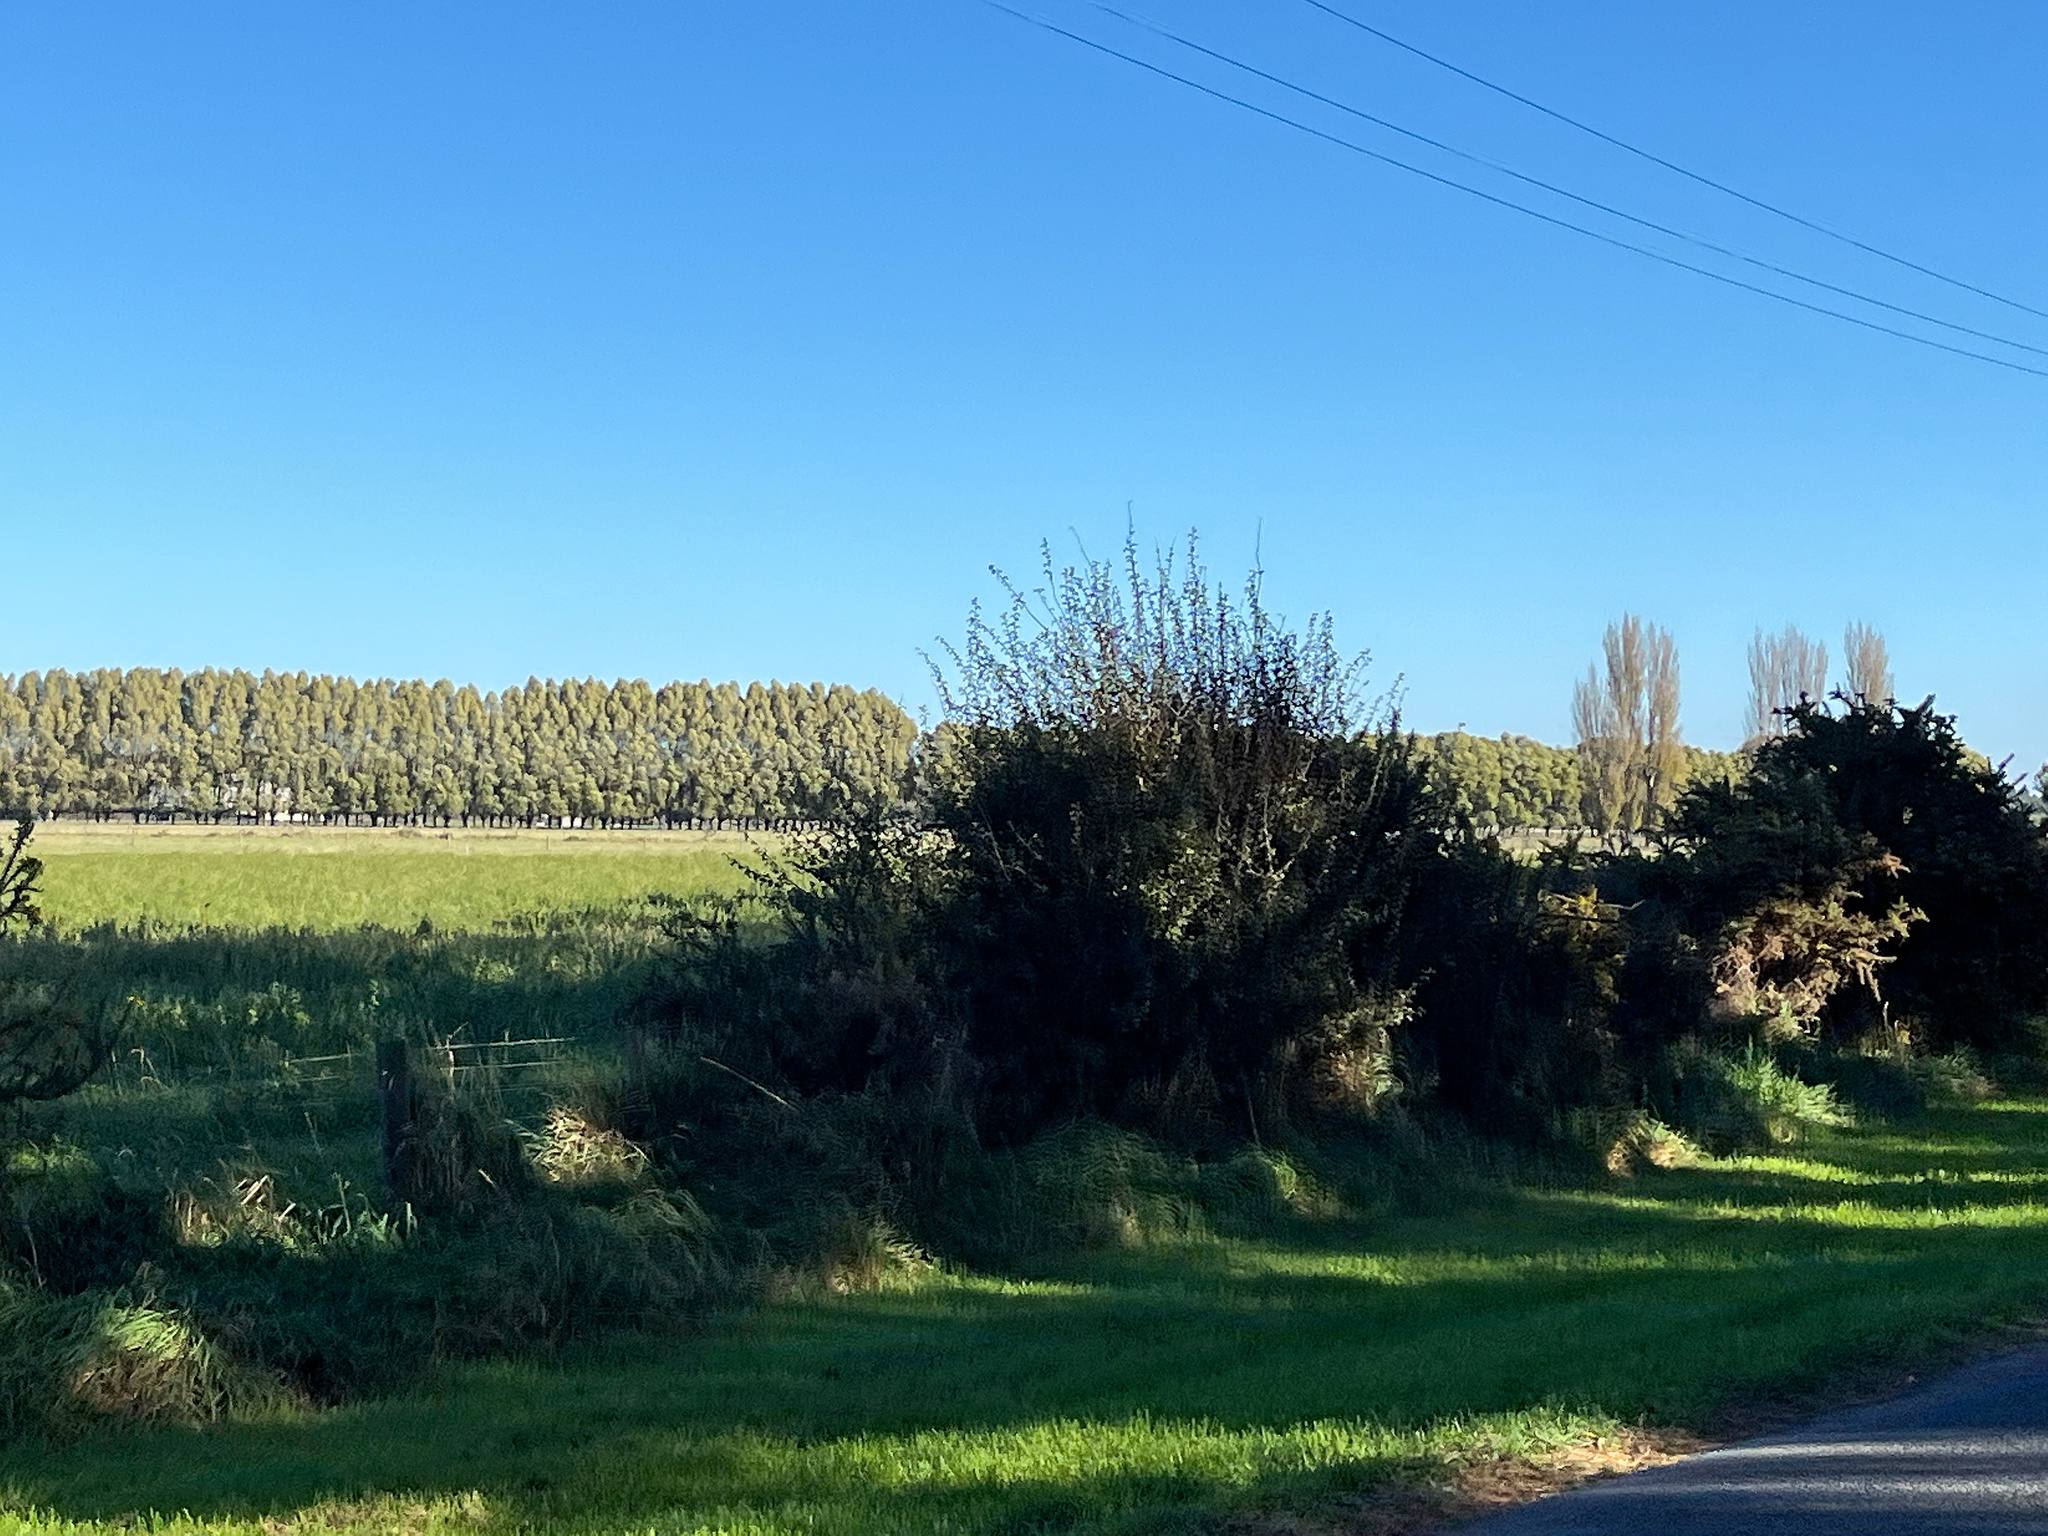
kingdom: Plantae
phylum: Tracheophyta
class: Magnoliopsida
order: Rosales
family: Rosaceae
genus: Crataegus
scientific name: Crataegus monogyna
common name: Hawthorn
